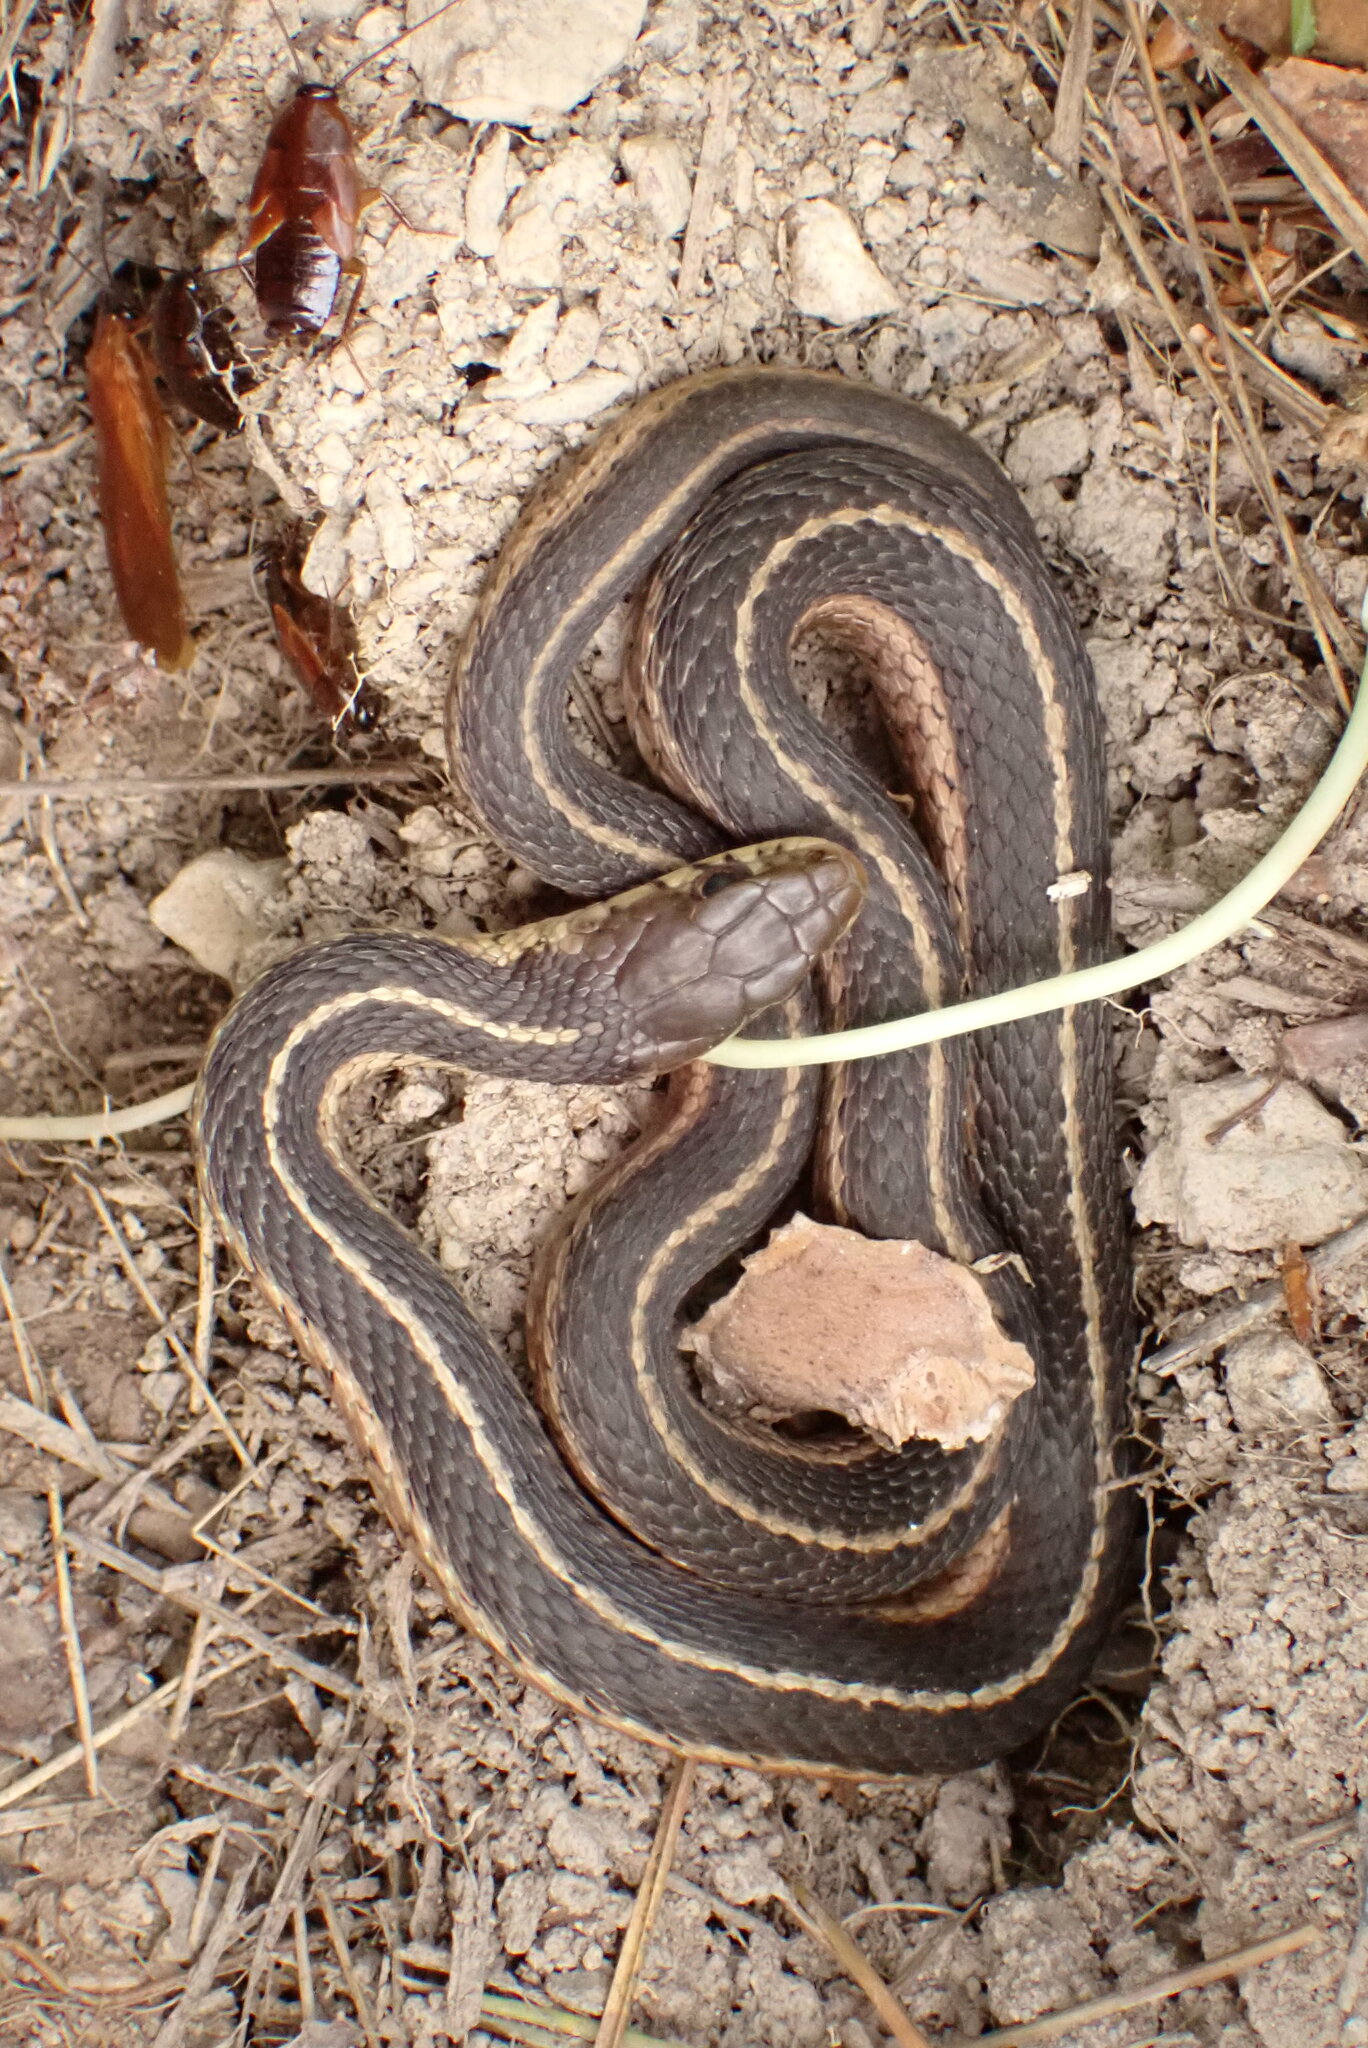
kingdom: Animalia
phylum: Chordata
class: Squamata
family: Colubridae
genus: Thamnophis
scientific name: Thamnophis sirtalis
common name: Common garter snake
